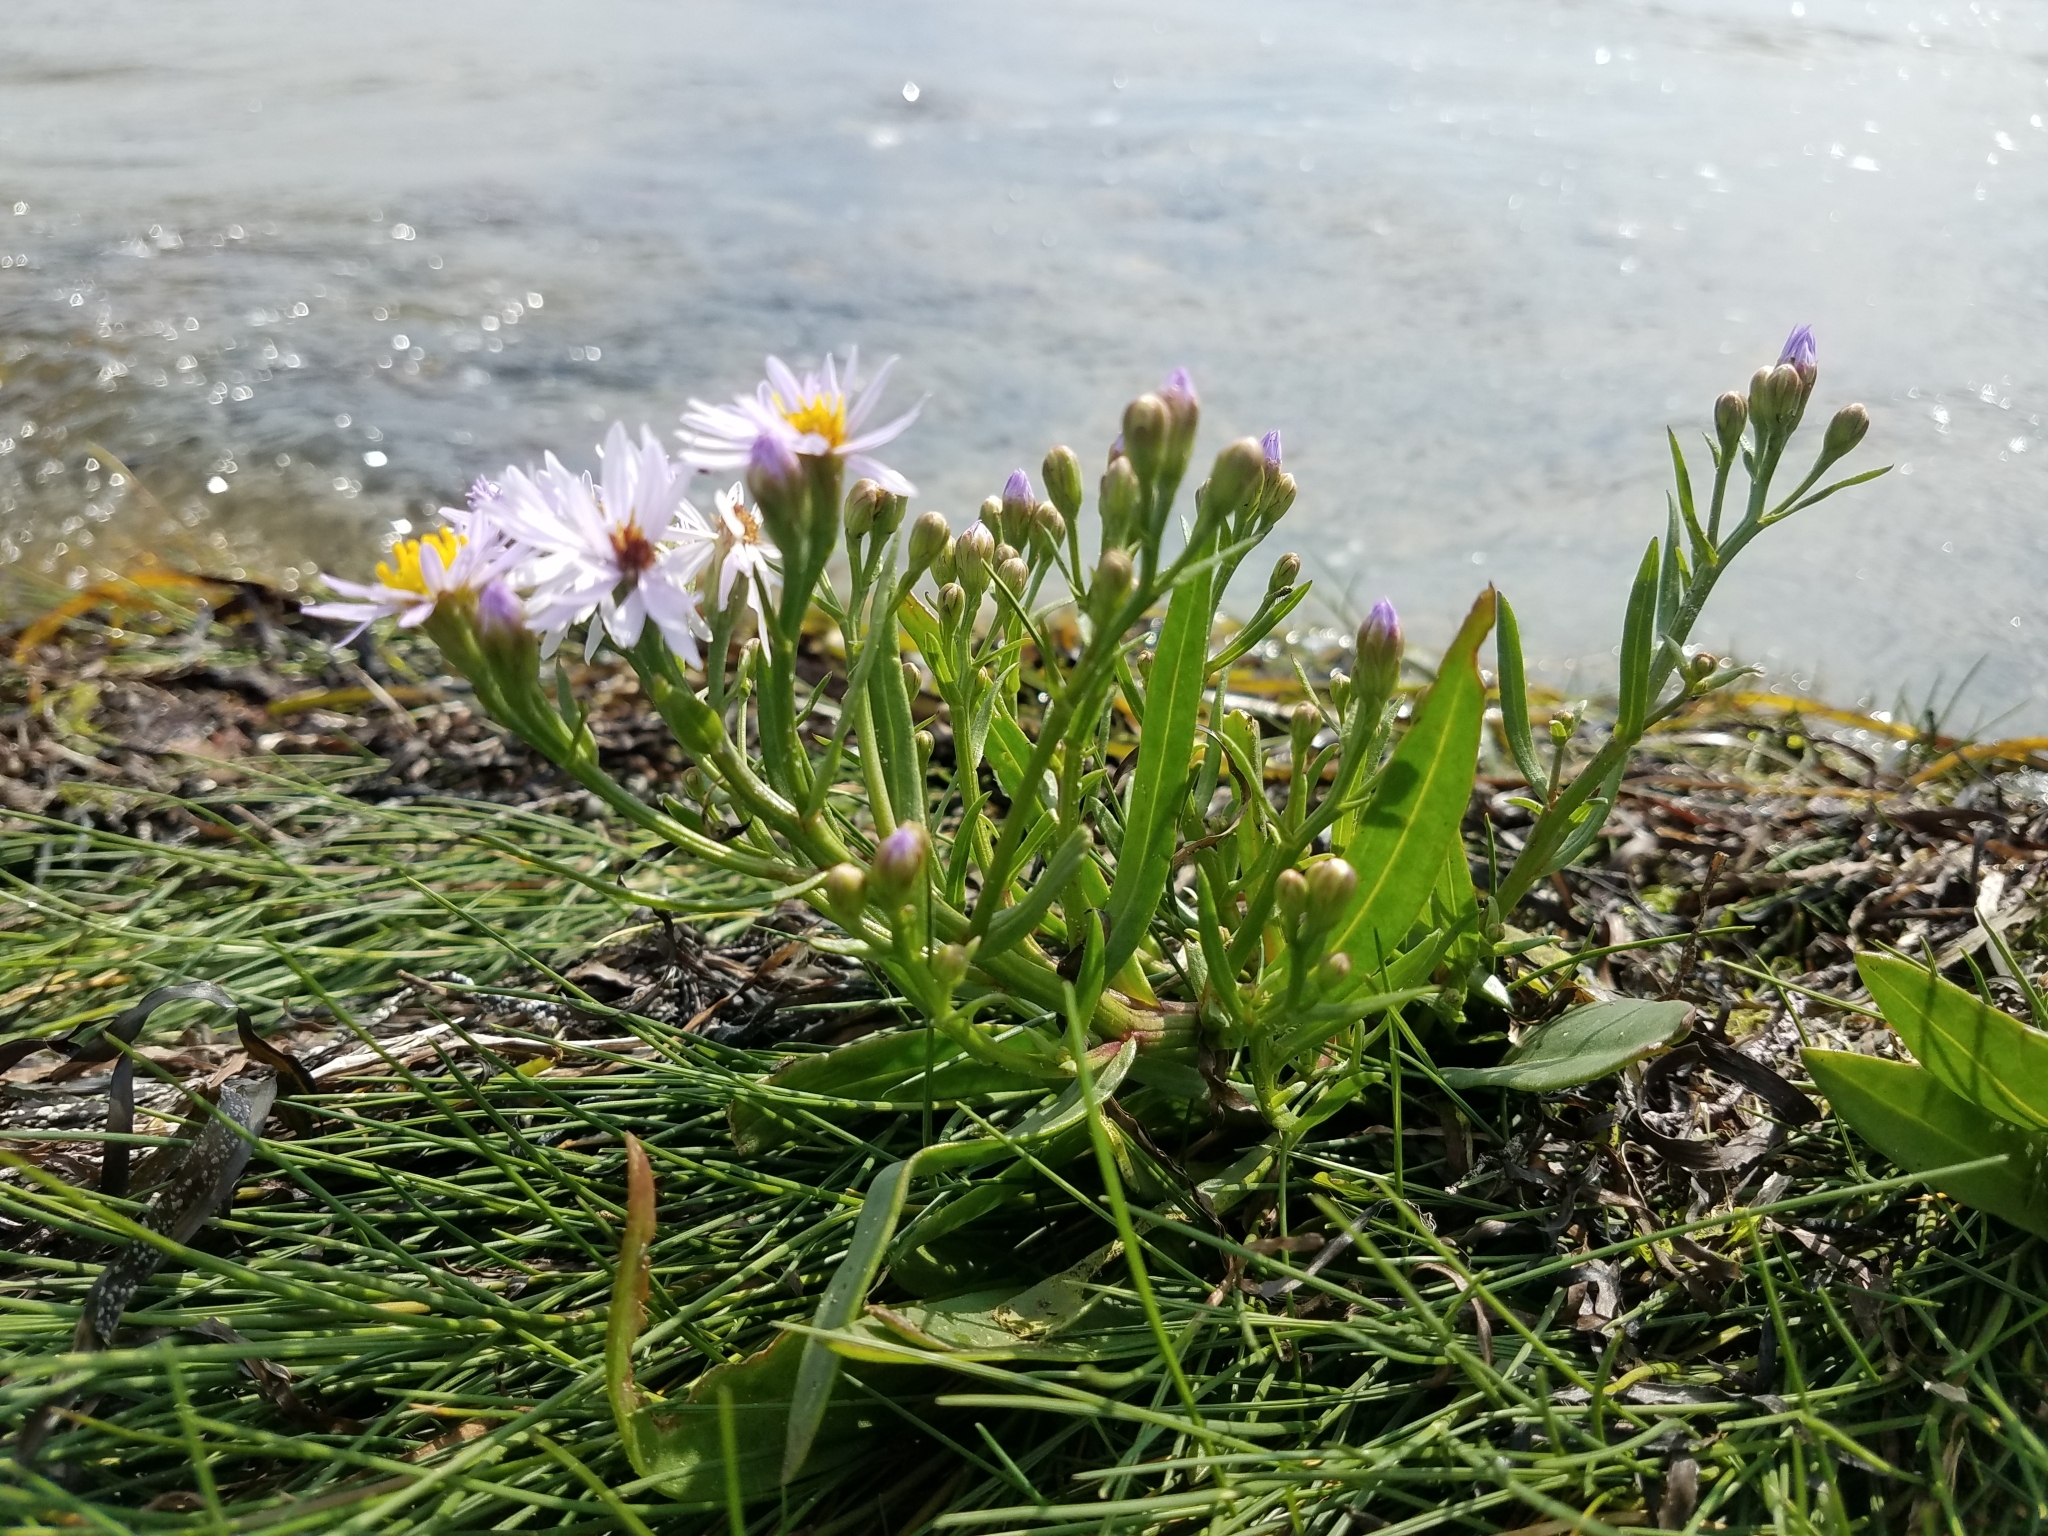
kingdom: Plantae
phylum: Tracheophyta
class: Magnoliopsida
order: Asterales
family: Asteraceae
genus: Tripolium
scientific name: Tripolium pannonicum
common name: Sea aster
